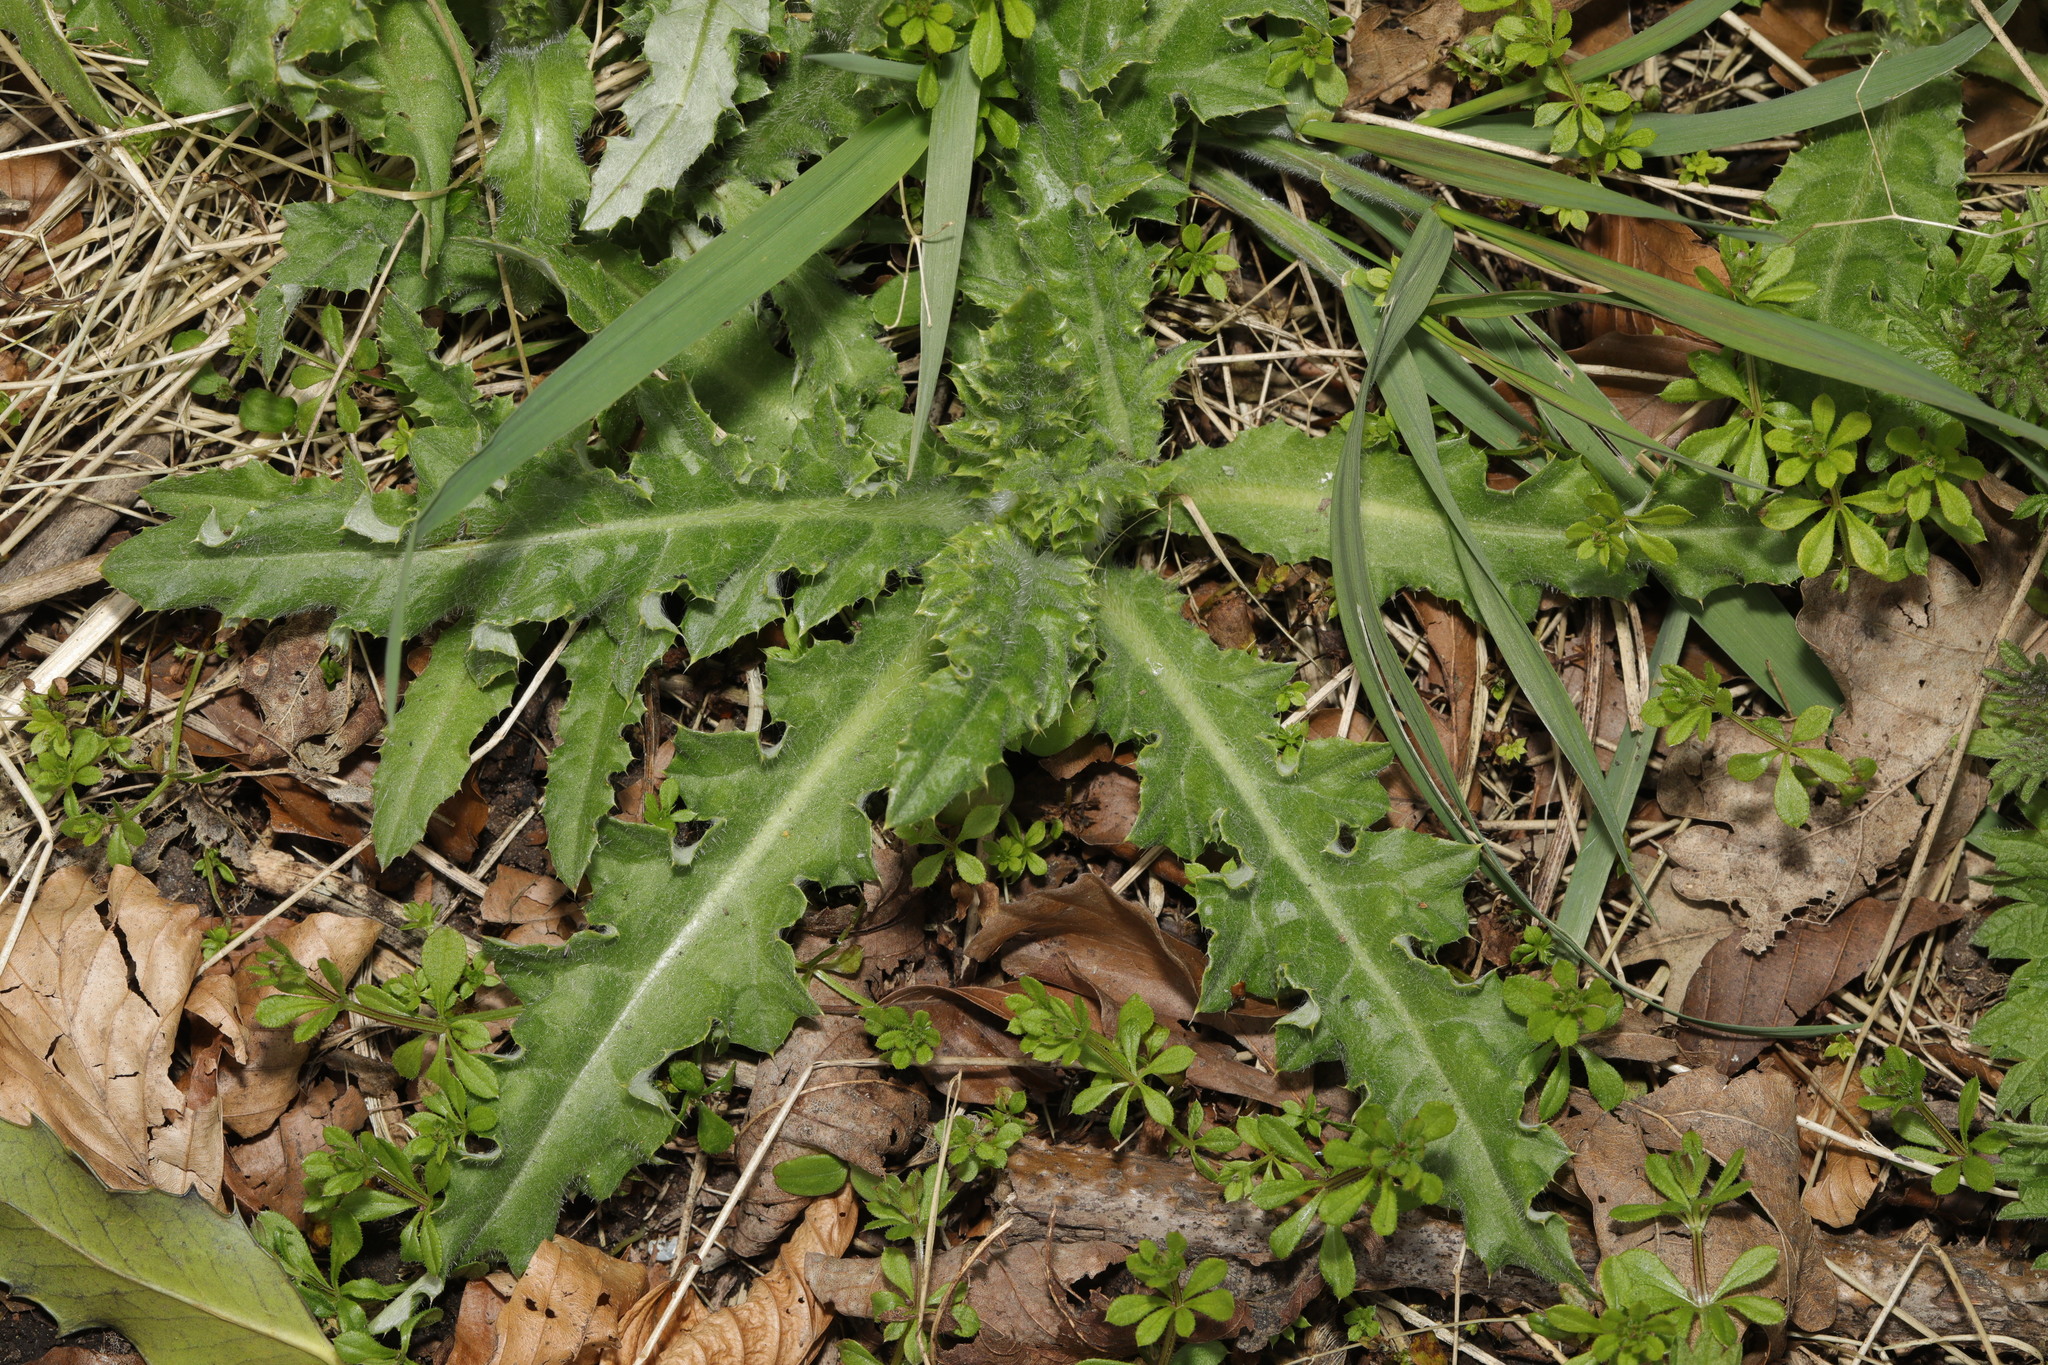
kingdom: Plantae
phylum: Tracheophyta
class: Magnoliopsida
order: Asterales
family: Asteraceae
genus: Cirsium
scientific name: Cirsium arvense
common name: Creeping thistle
